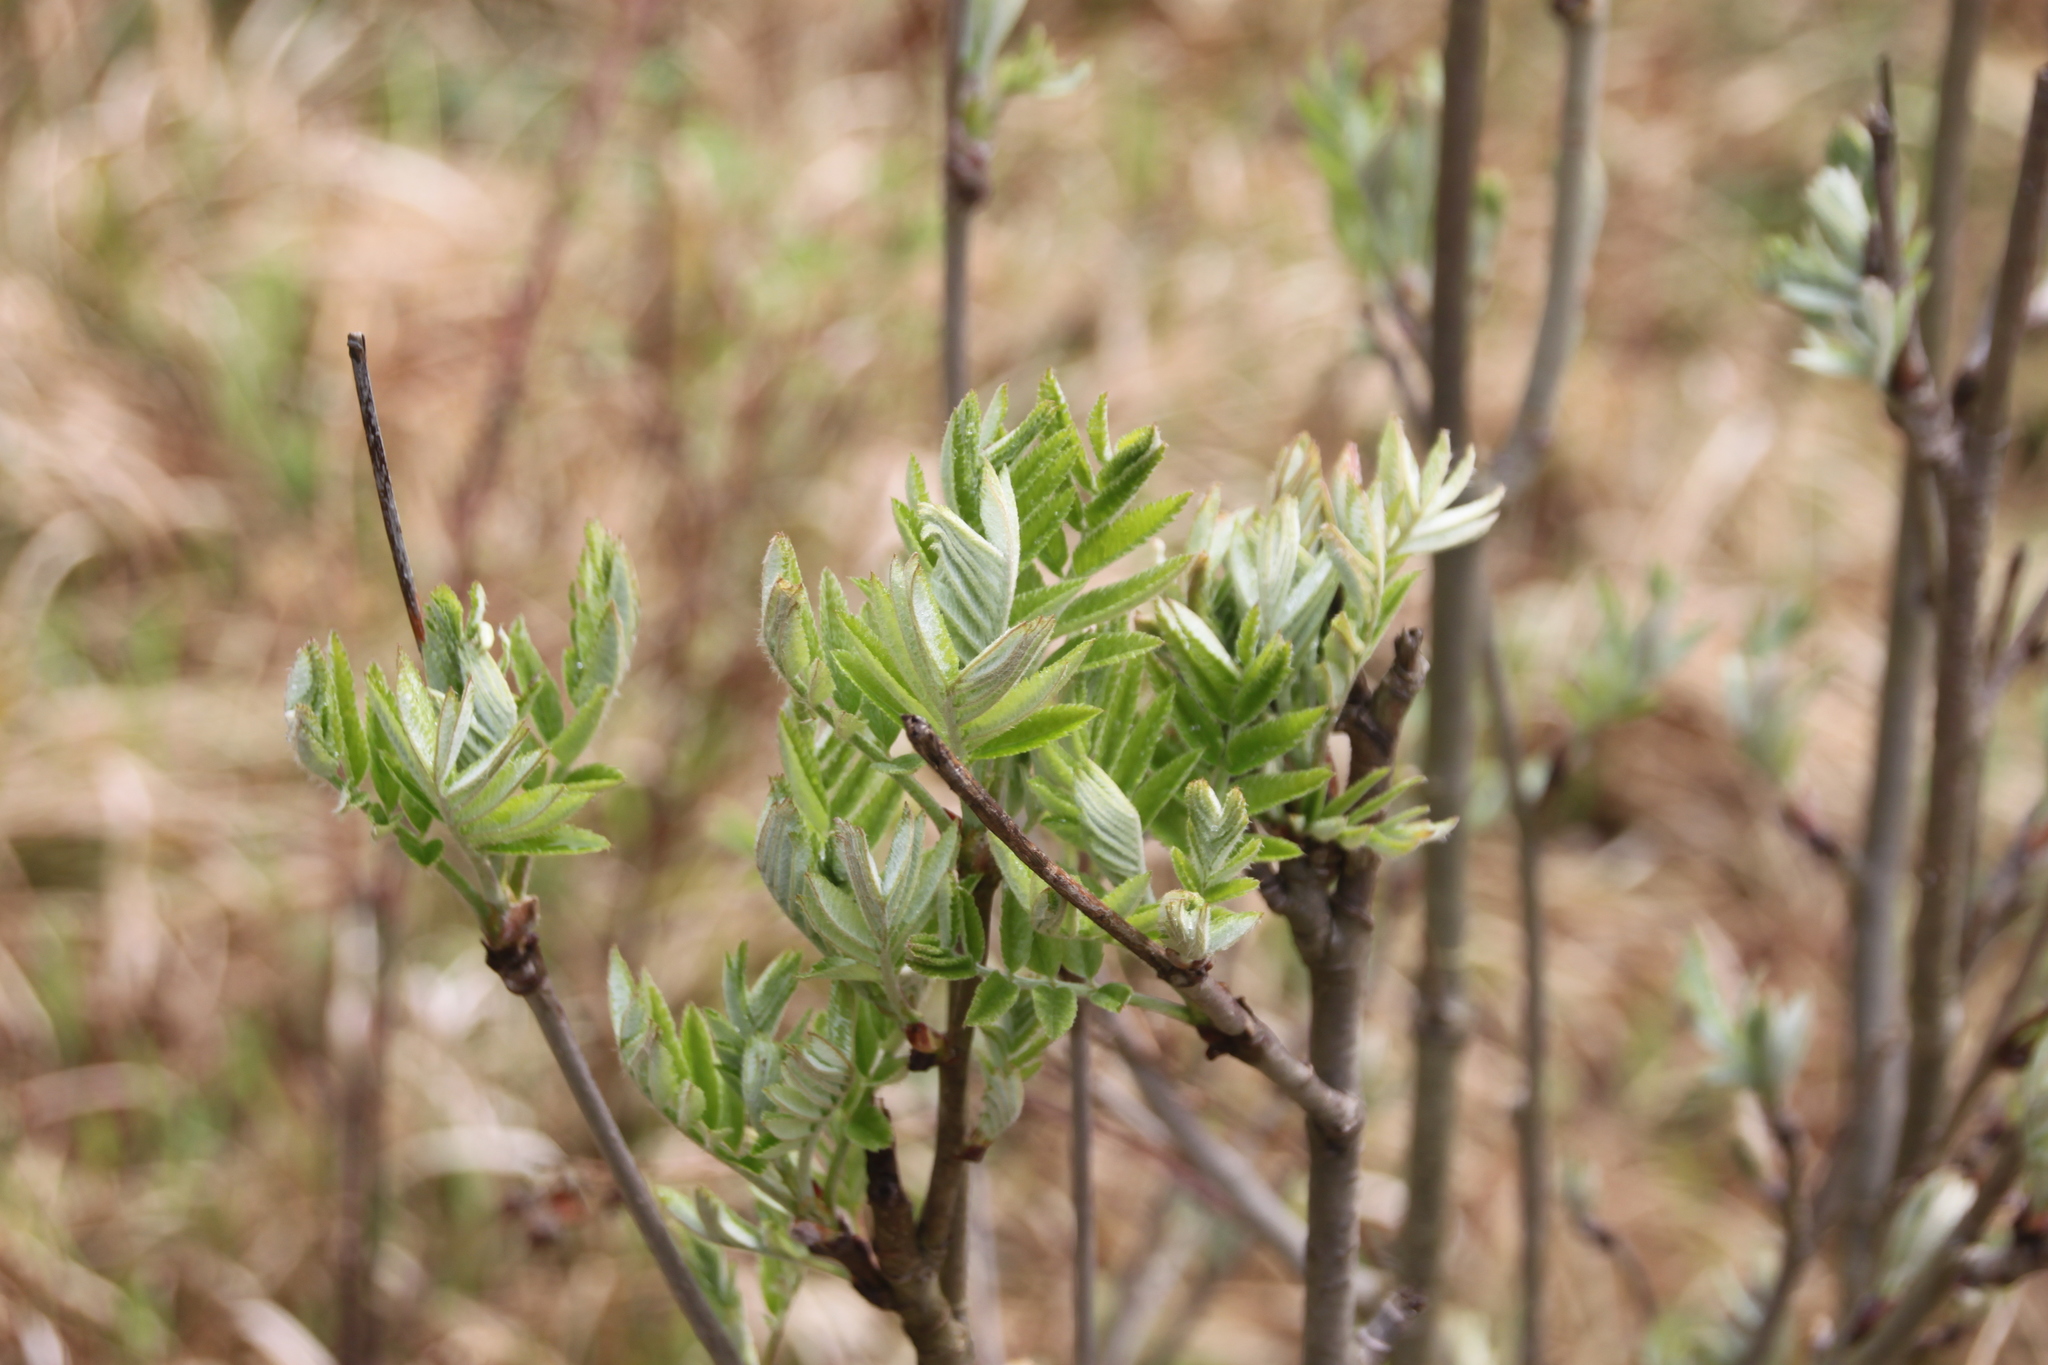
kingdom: Plantae
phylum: Tracheophyta
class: Magnoliopsida
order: Rosales
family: Rosaceae
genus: Sorbus
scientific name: Sorbus aucuparia
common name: Rowan
